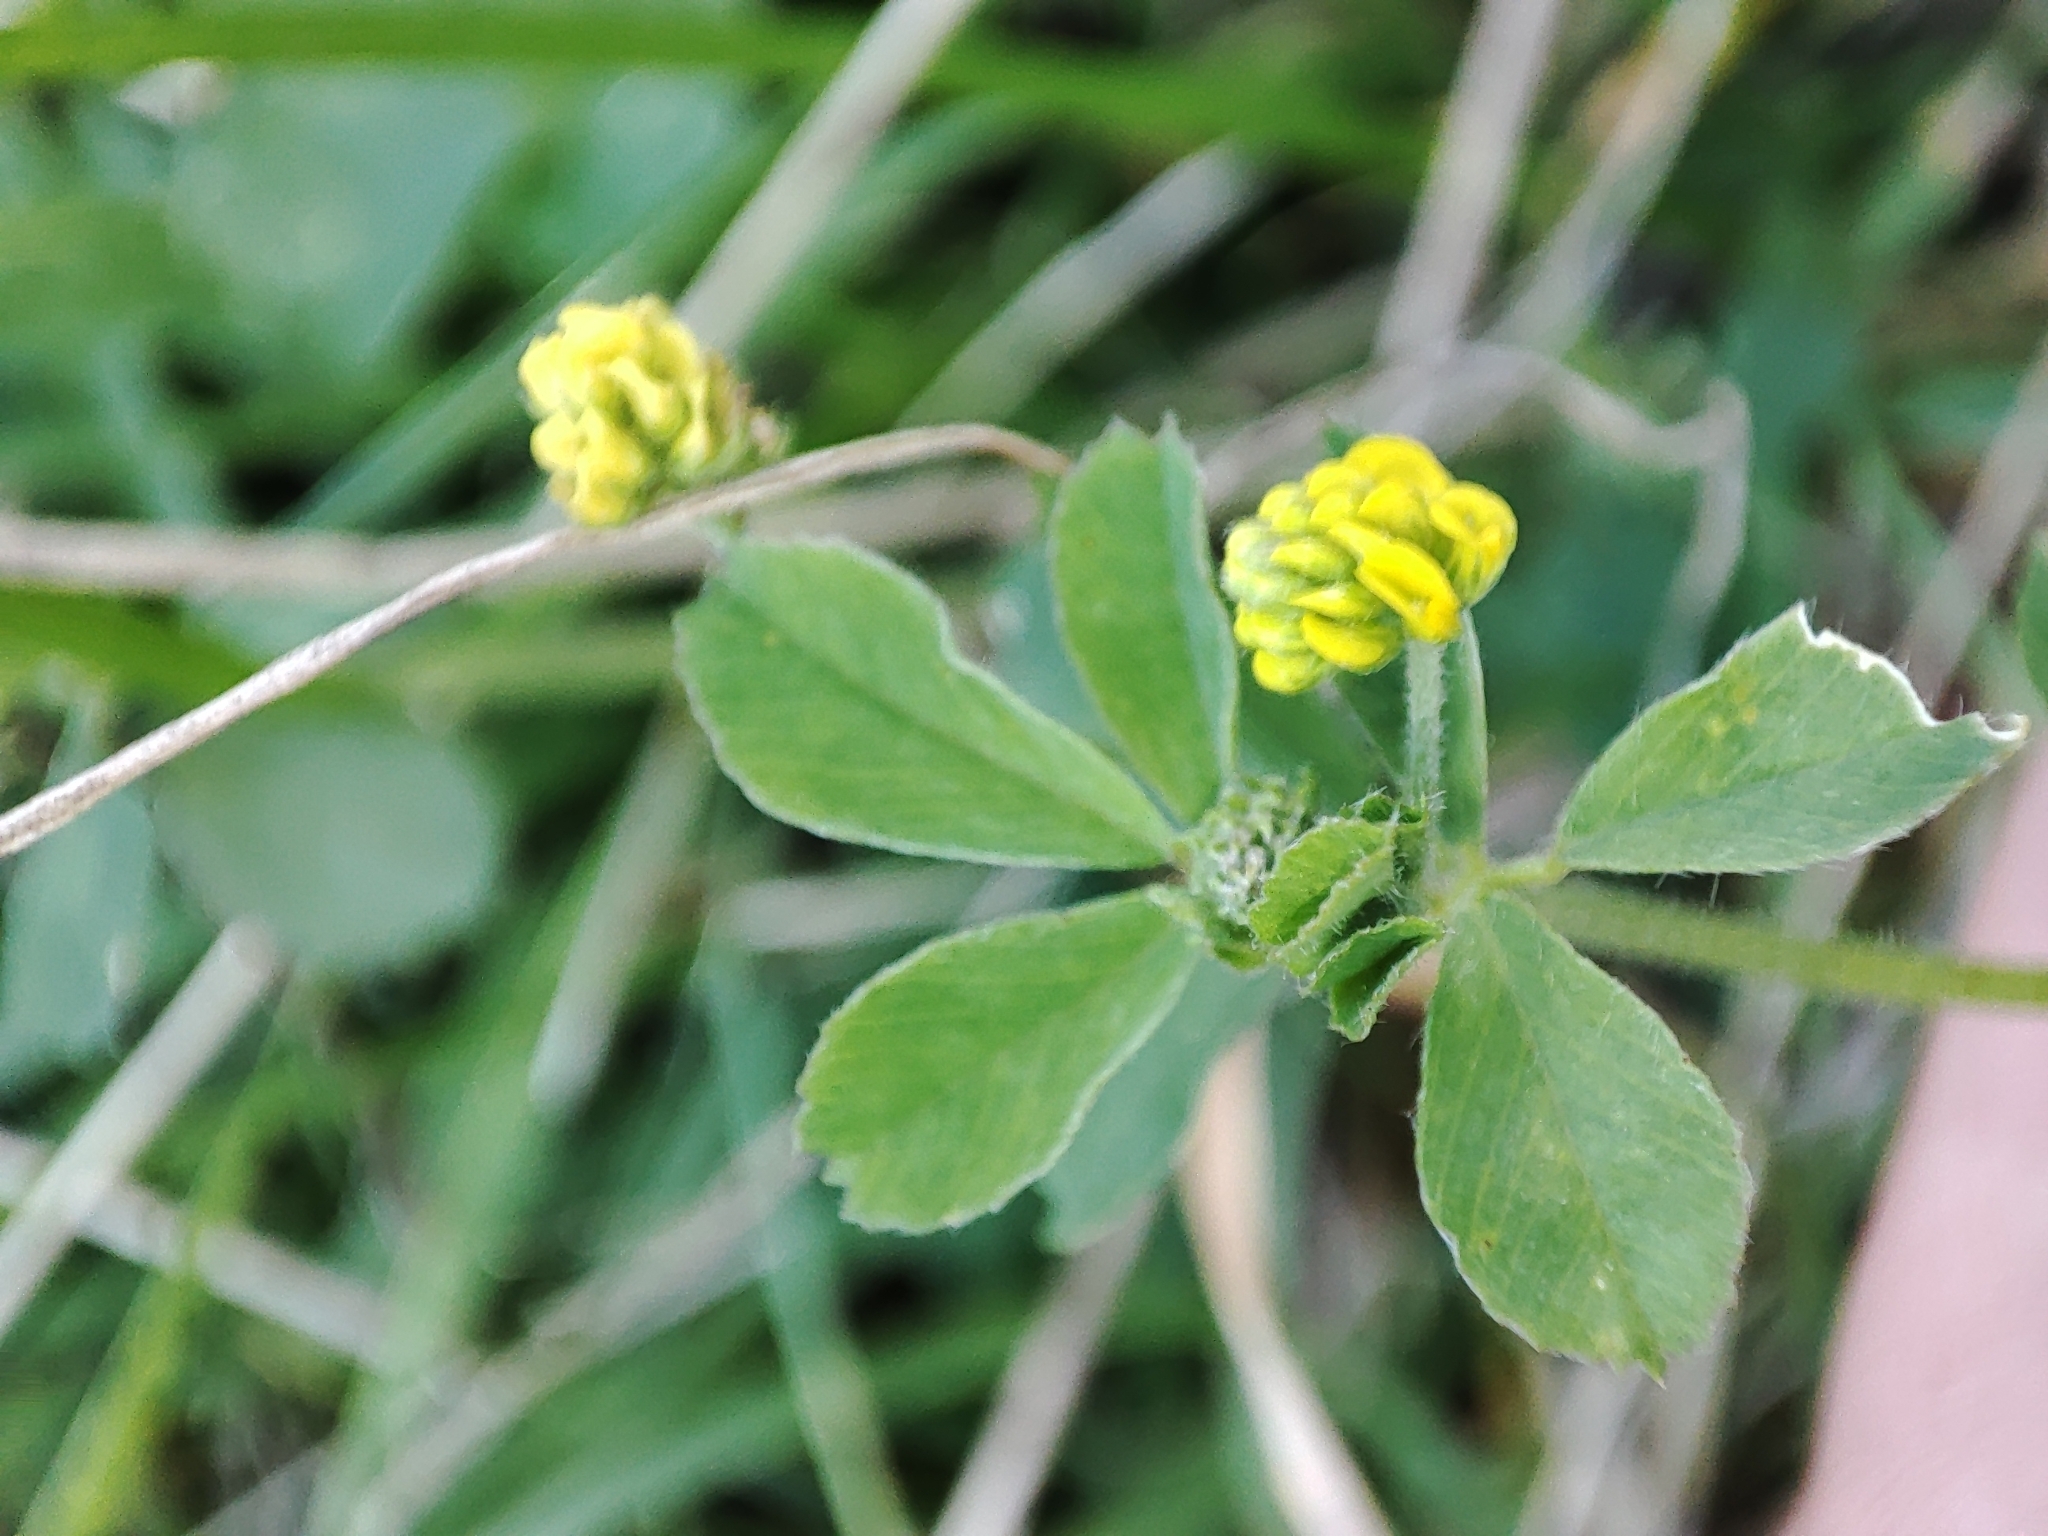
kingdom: Plantae
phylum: Tracheophyta
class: Magnoliopsida
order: Fabales
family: Fabaceae
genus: Medicago
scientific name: Medicago lupulina
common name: Black medick
